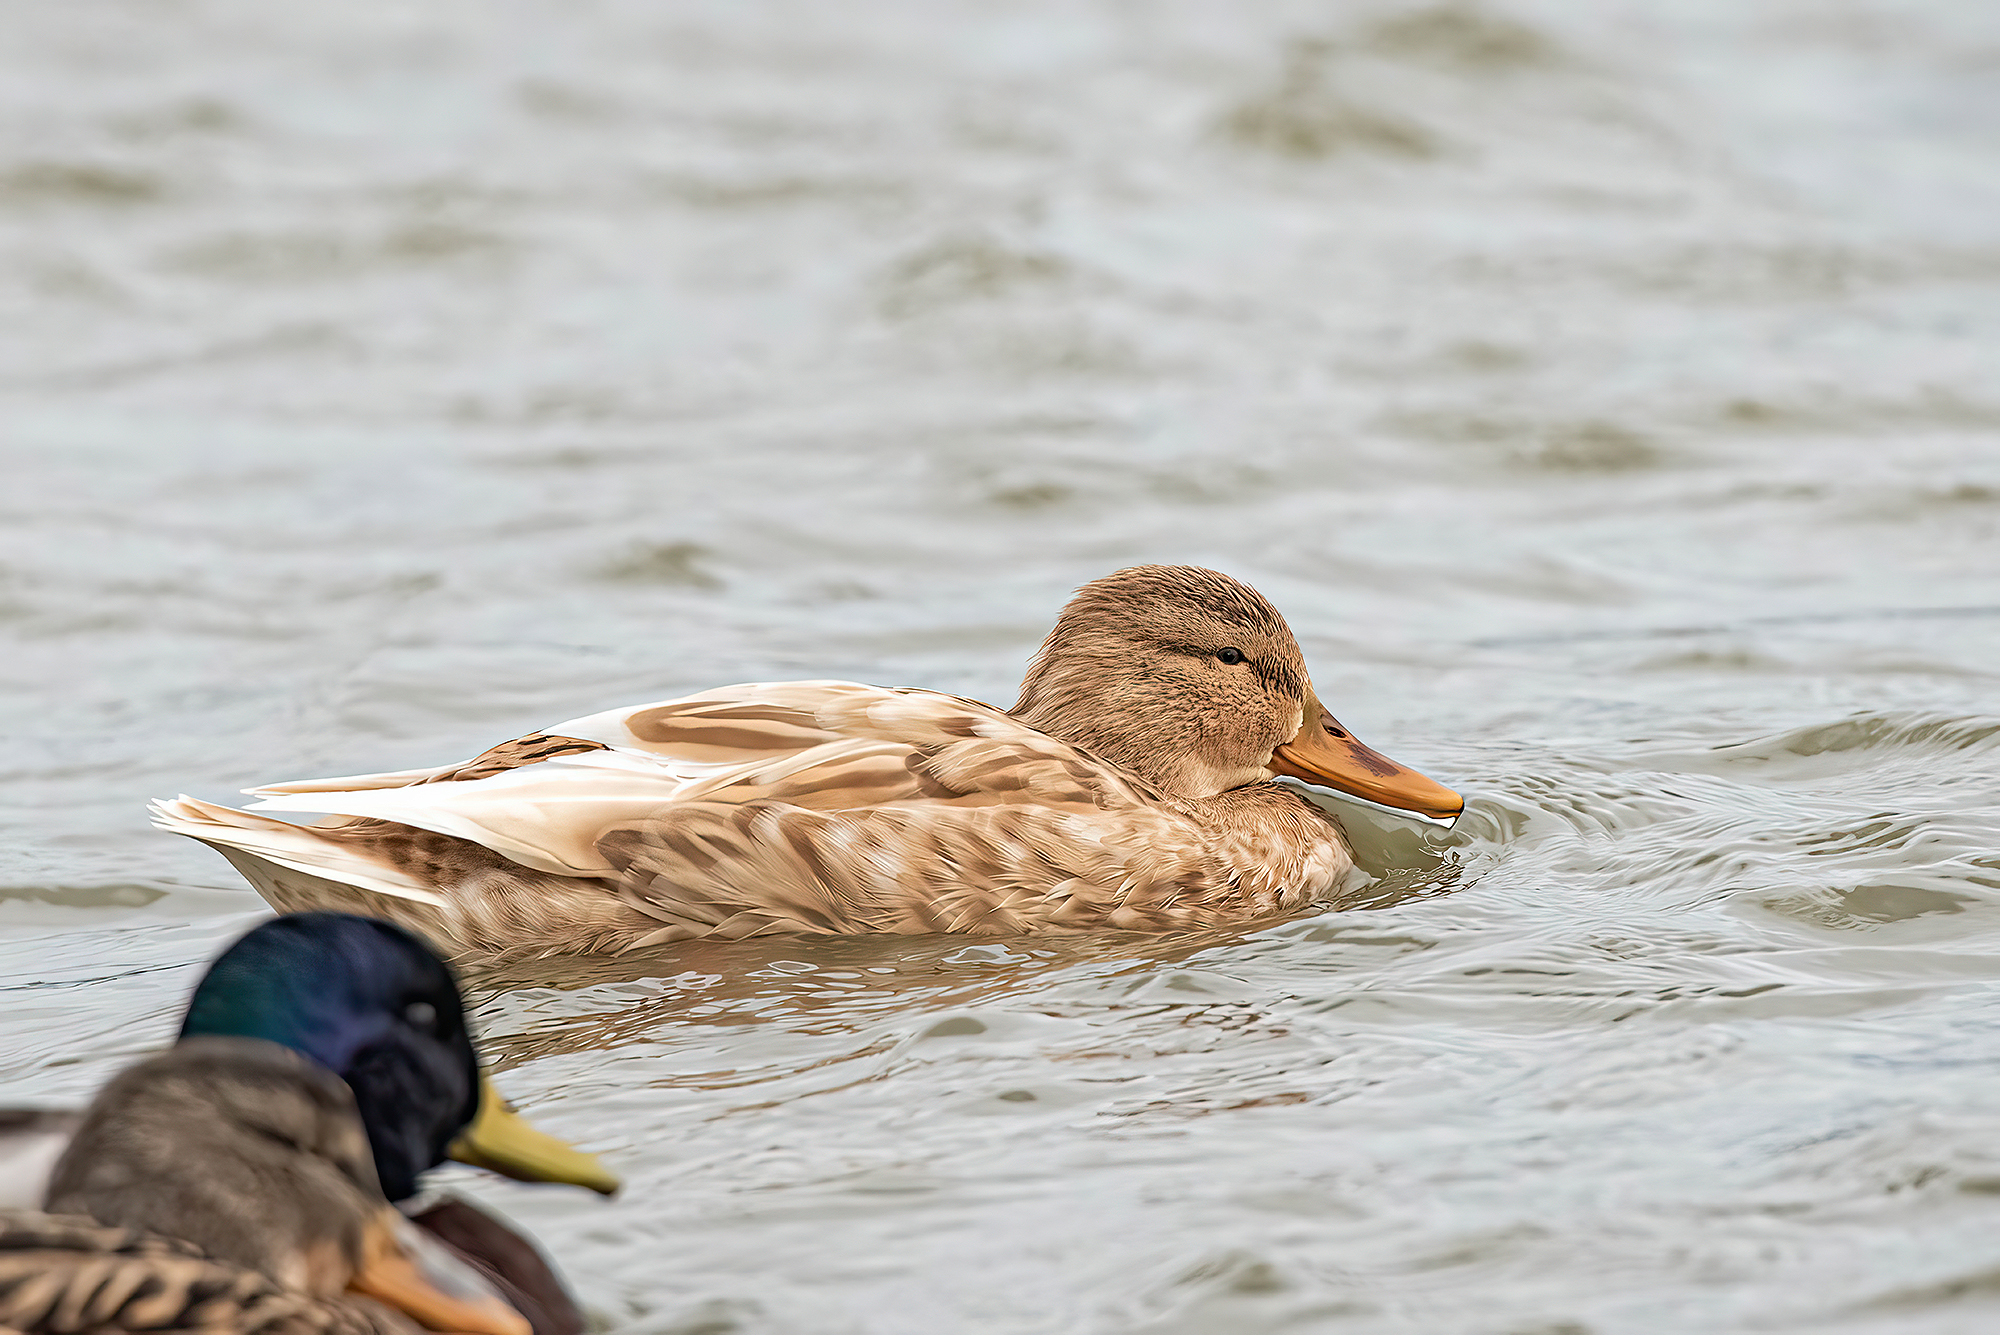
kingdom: Animalia
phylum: Chordata
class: Aves
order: Anseriformes
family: Anatidae
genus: Anas
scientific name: Anas platyrhynchos
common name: Mallard
